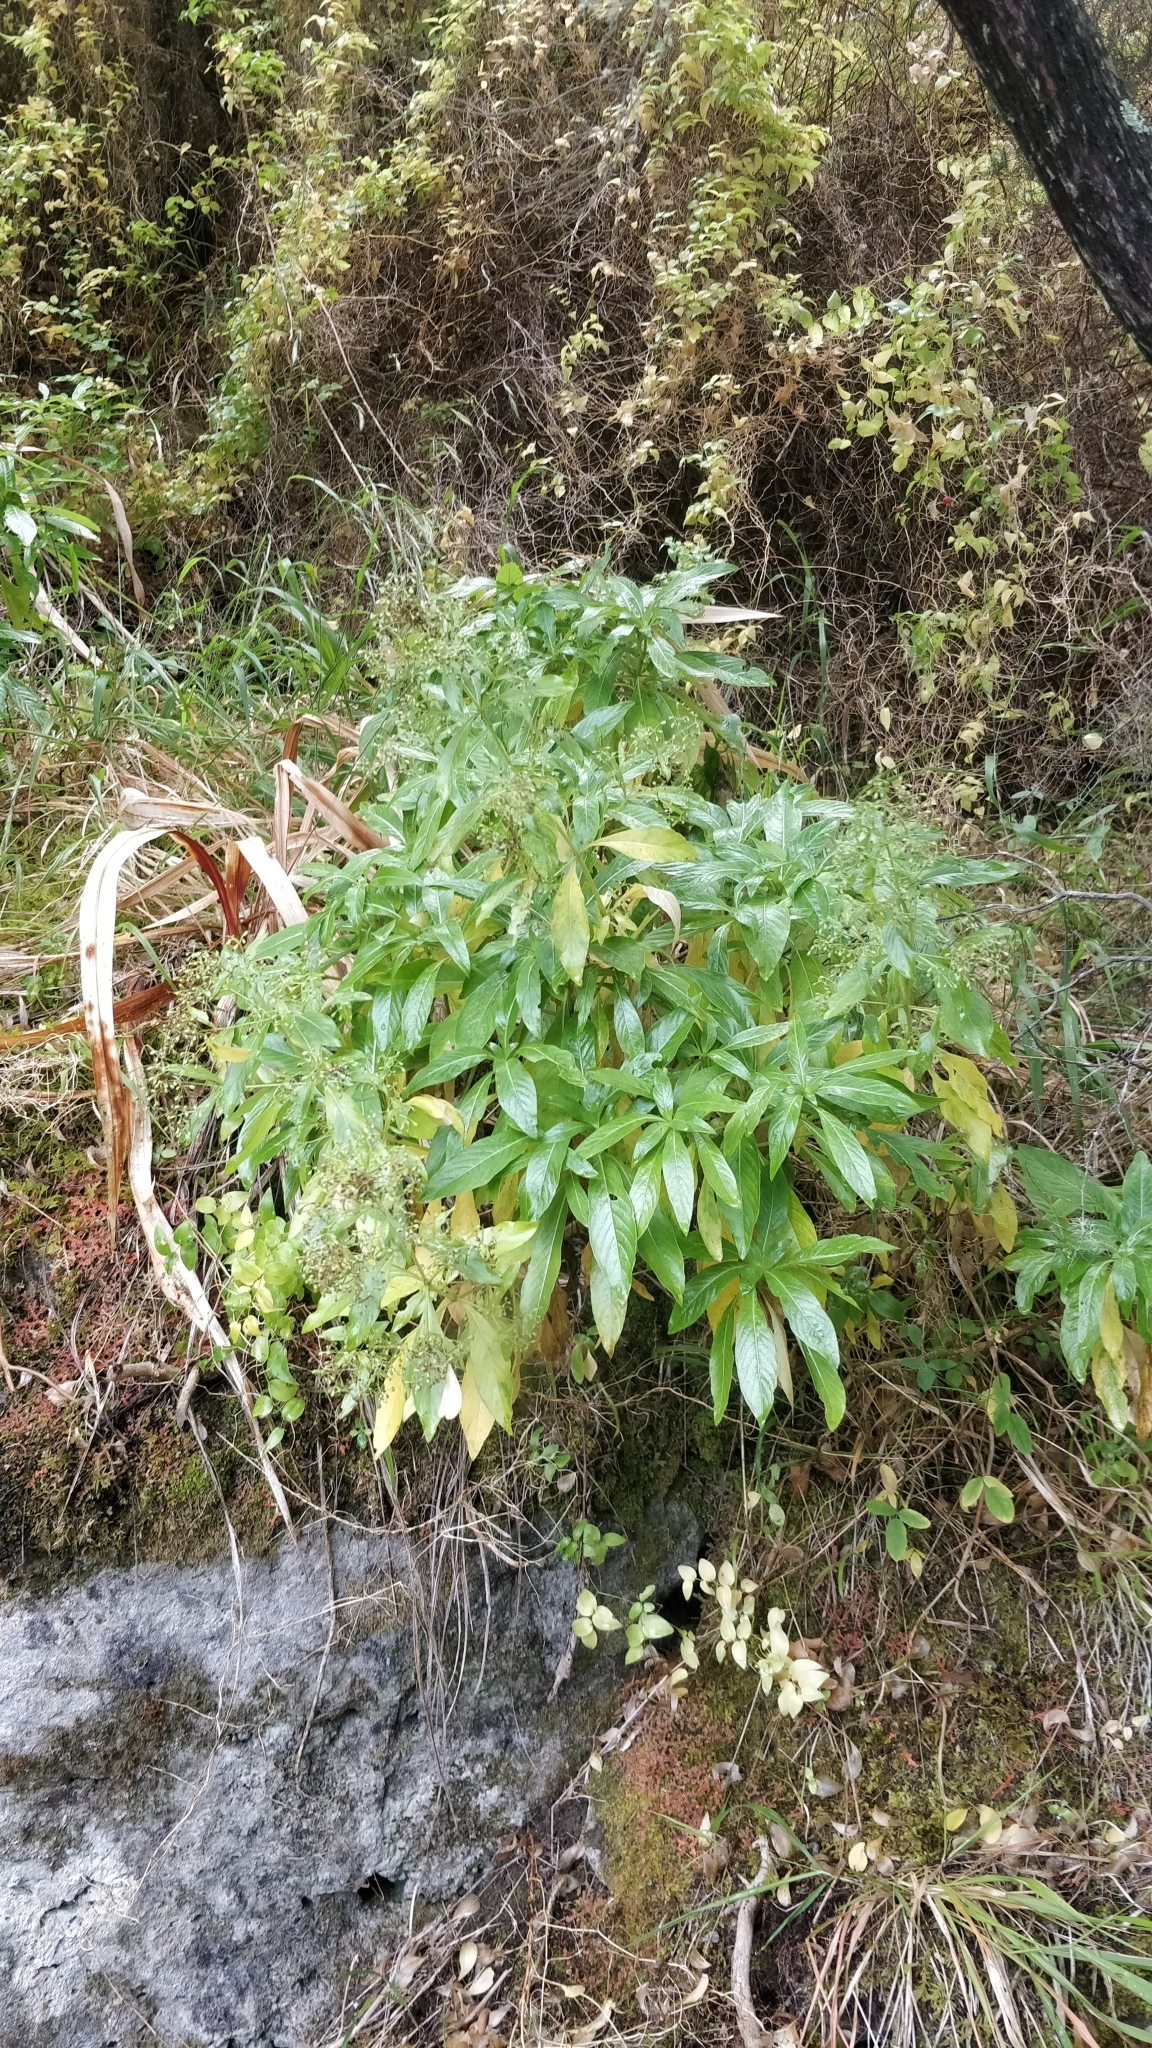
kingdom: Plantae
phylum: Tracheophyta
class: Magnoliopsida
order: Gentianales
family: Rubiaceae
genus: Phyllis
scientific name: Phyllis nobla
